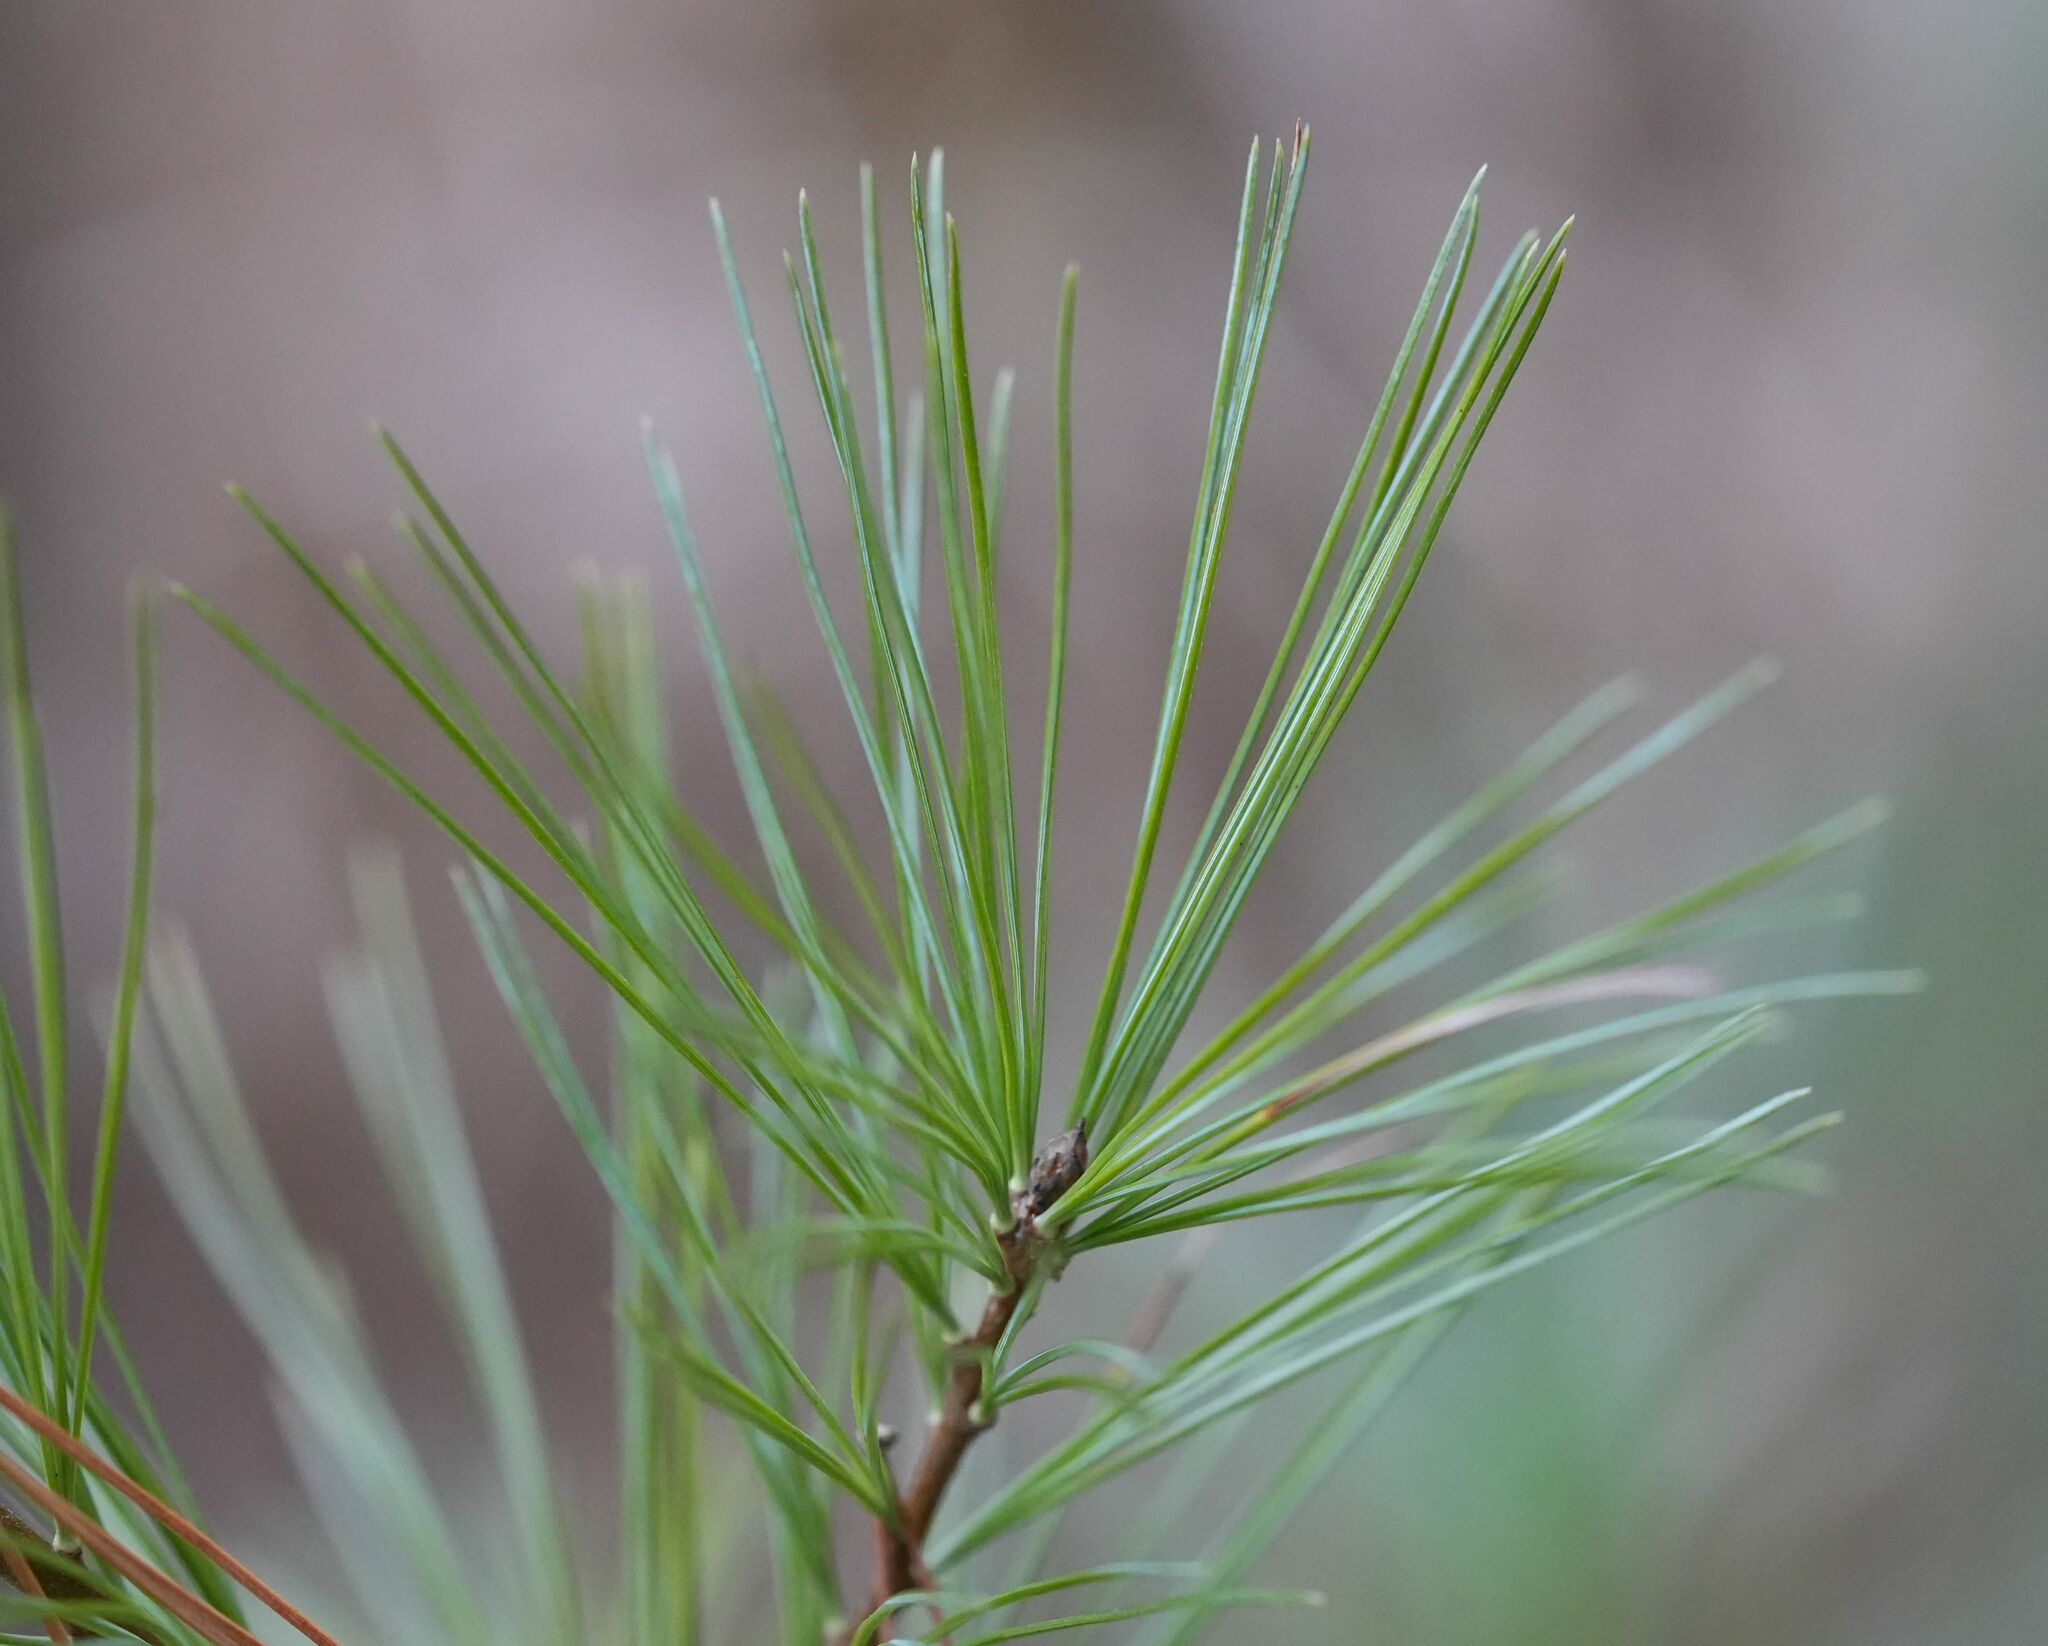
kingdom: Plantae
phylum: Tracheophyta
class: Pinopsida
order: Pinales
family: Pinaceae
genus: Pinus
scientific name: Pinus strobus
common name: Weymouth pine
